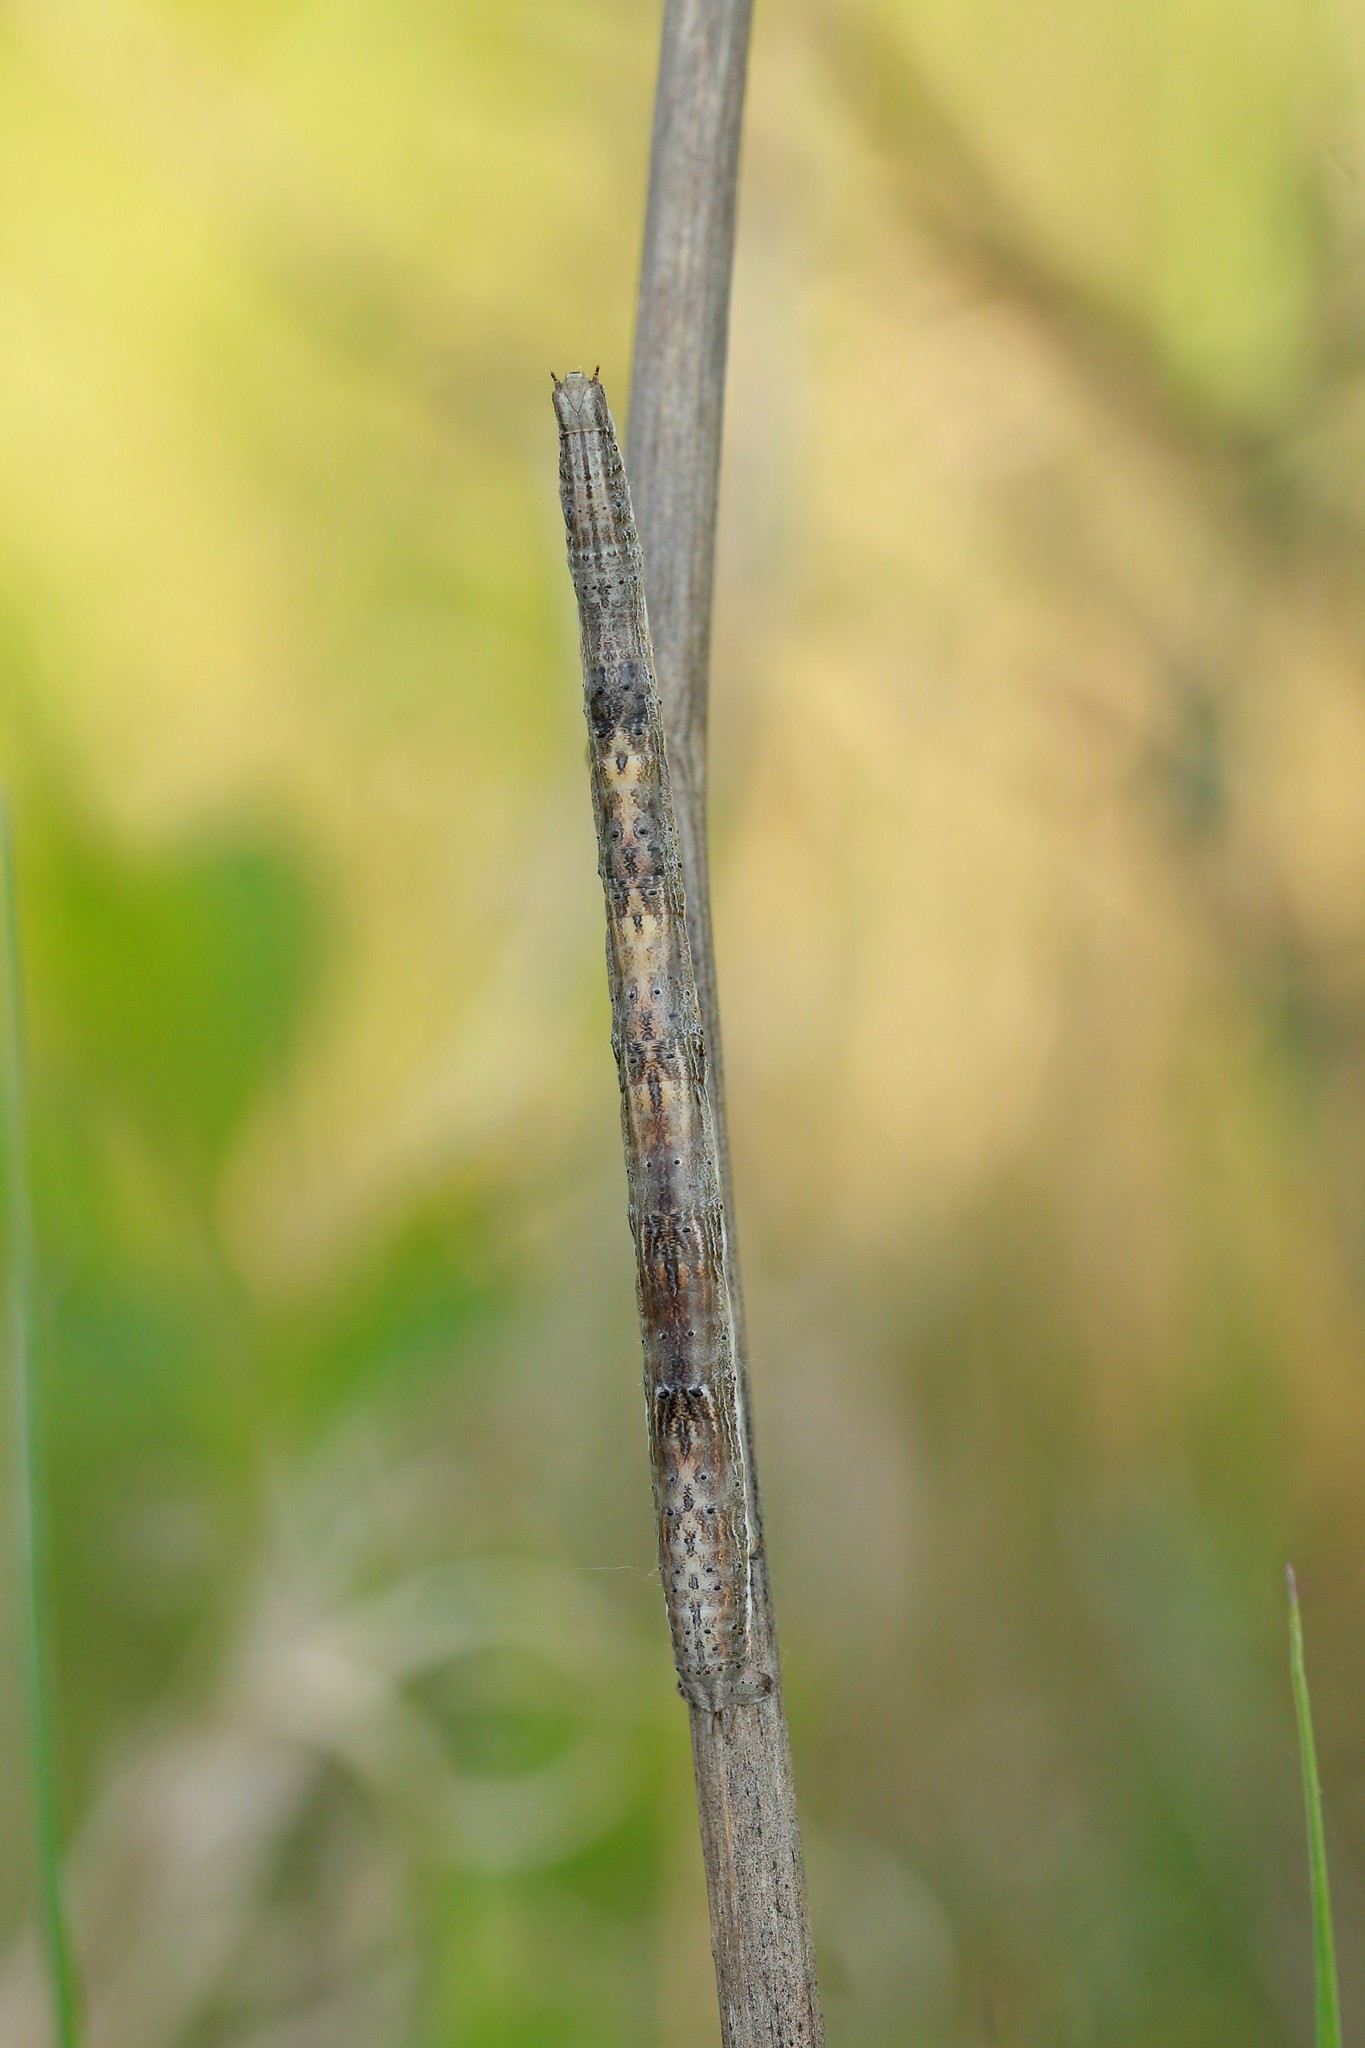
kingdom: Animalia
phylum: Arthropoda
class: Insecta
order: Lepidoptera
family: Geometridae
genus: Angerona
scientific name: Angerona prunaria
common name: Orange moth
